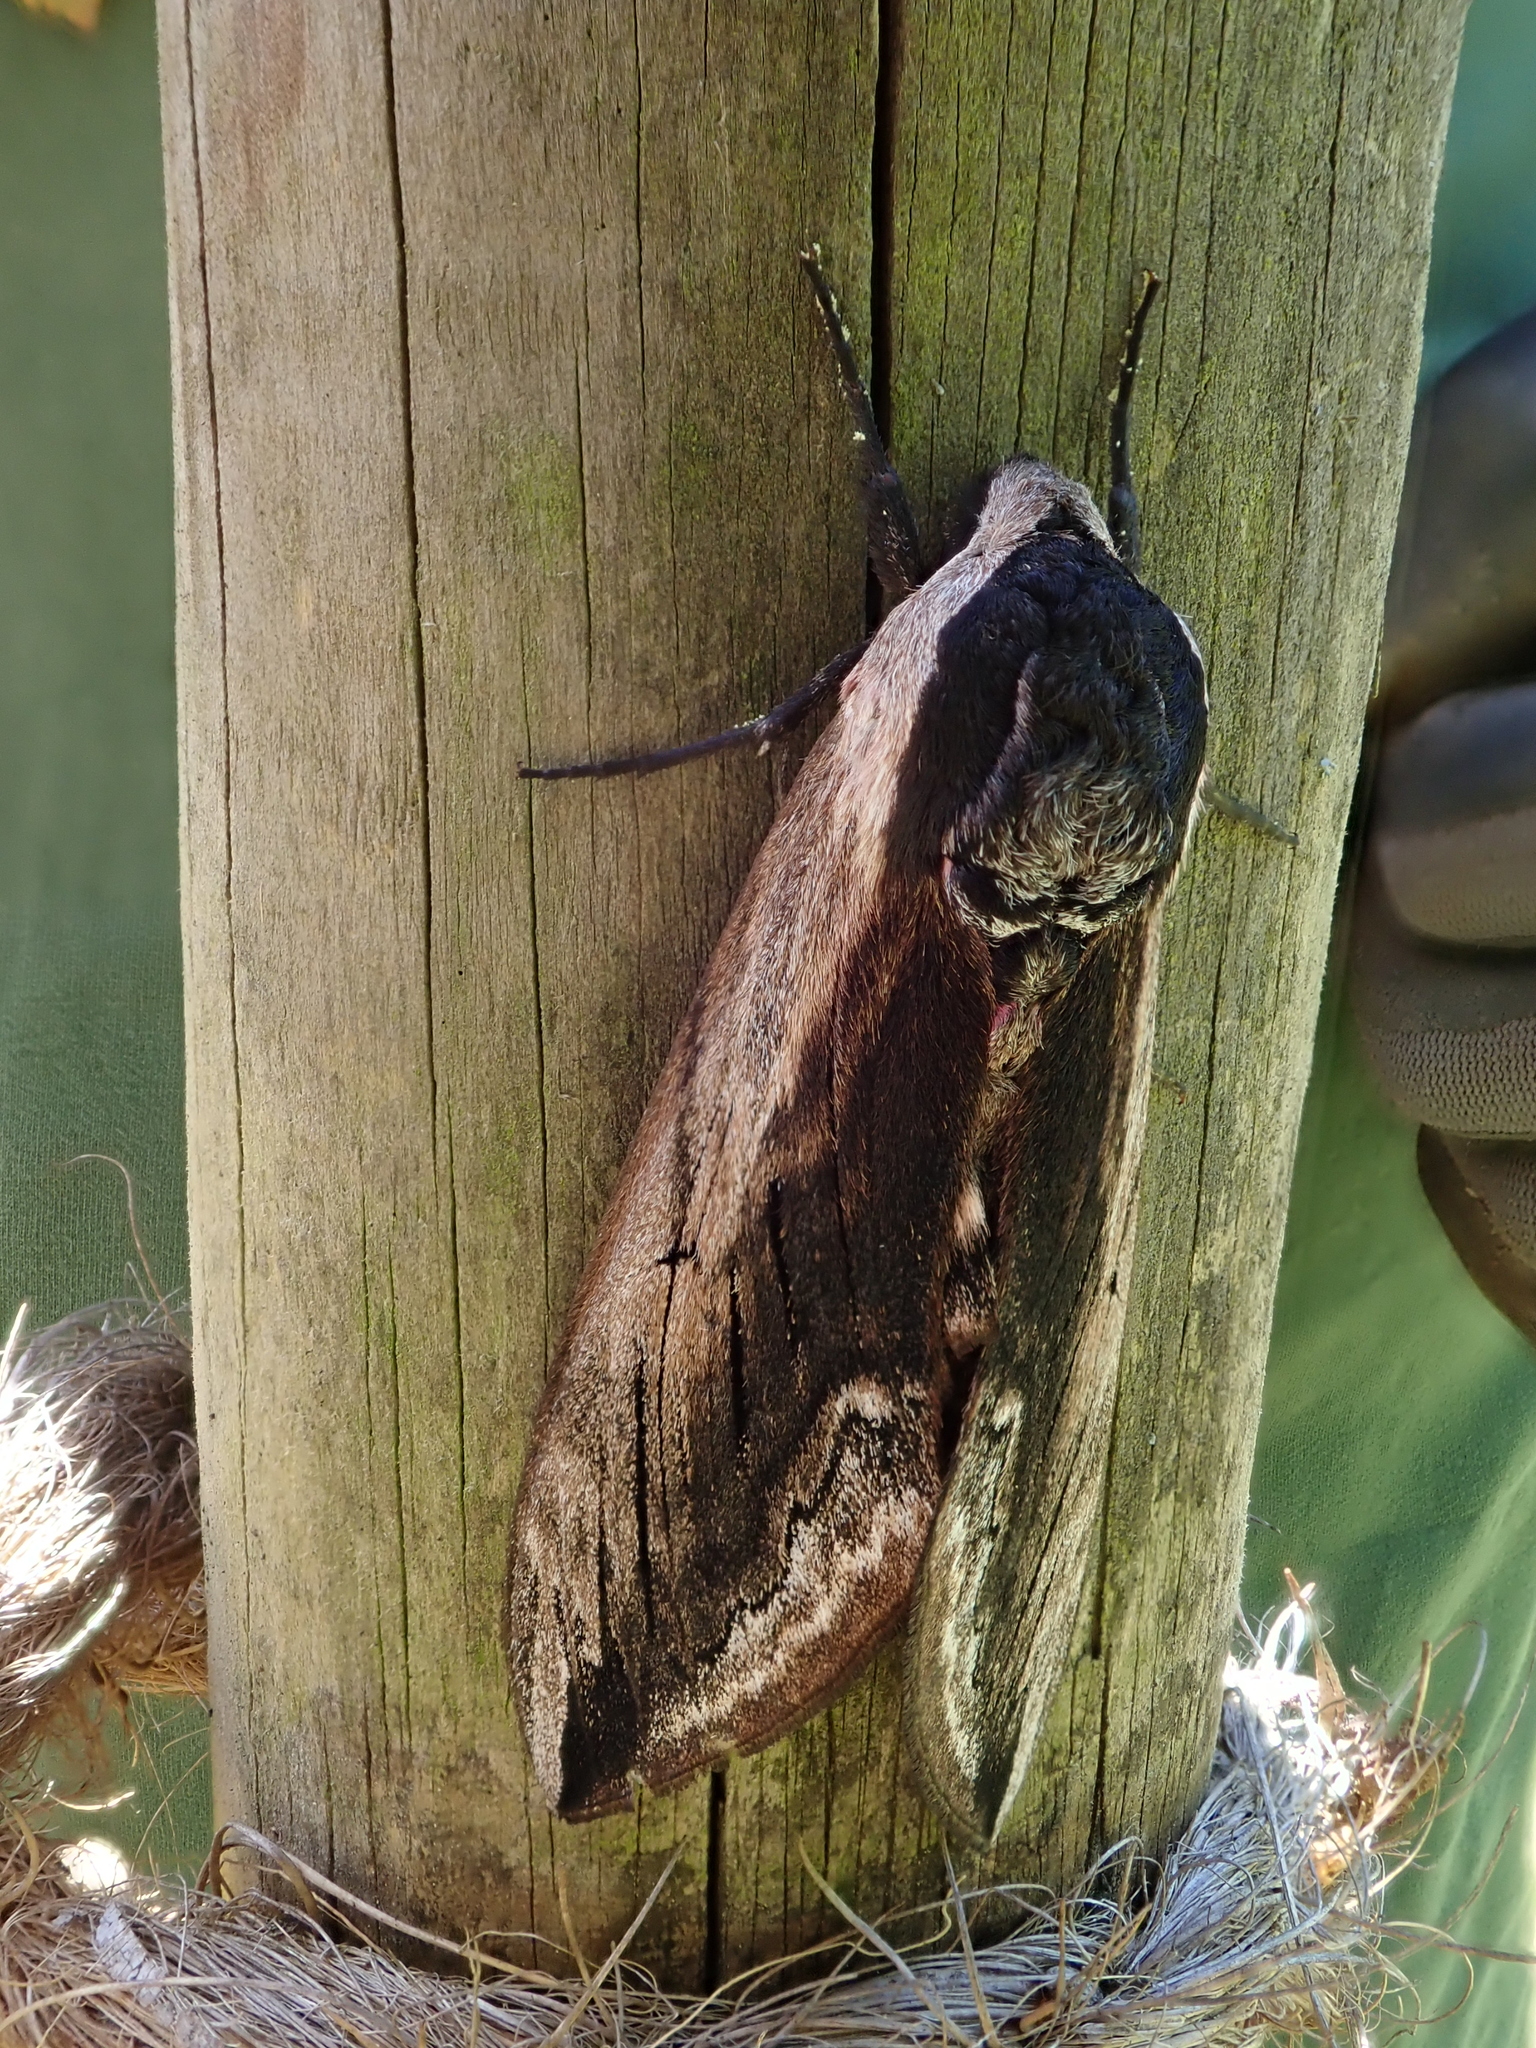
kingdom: Animalia
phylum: Arthropoda
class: Insecta
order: Lepidoptera
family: Sphingidae
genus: Sphinx
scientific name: Sphinx ligustri
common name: Privet hawk-moth
